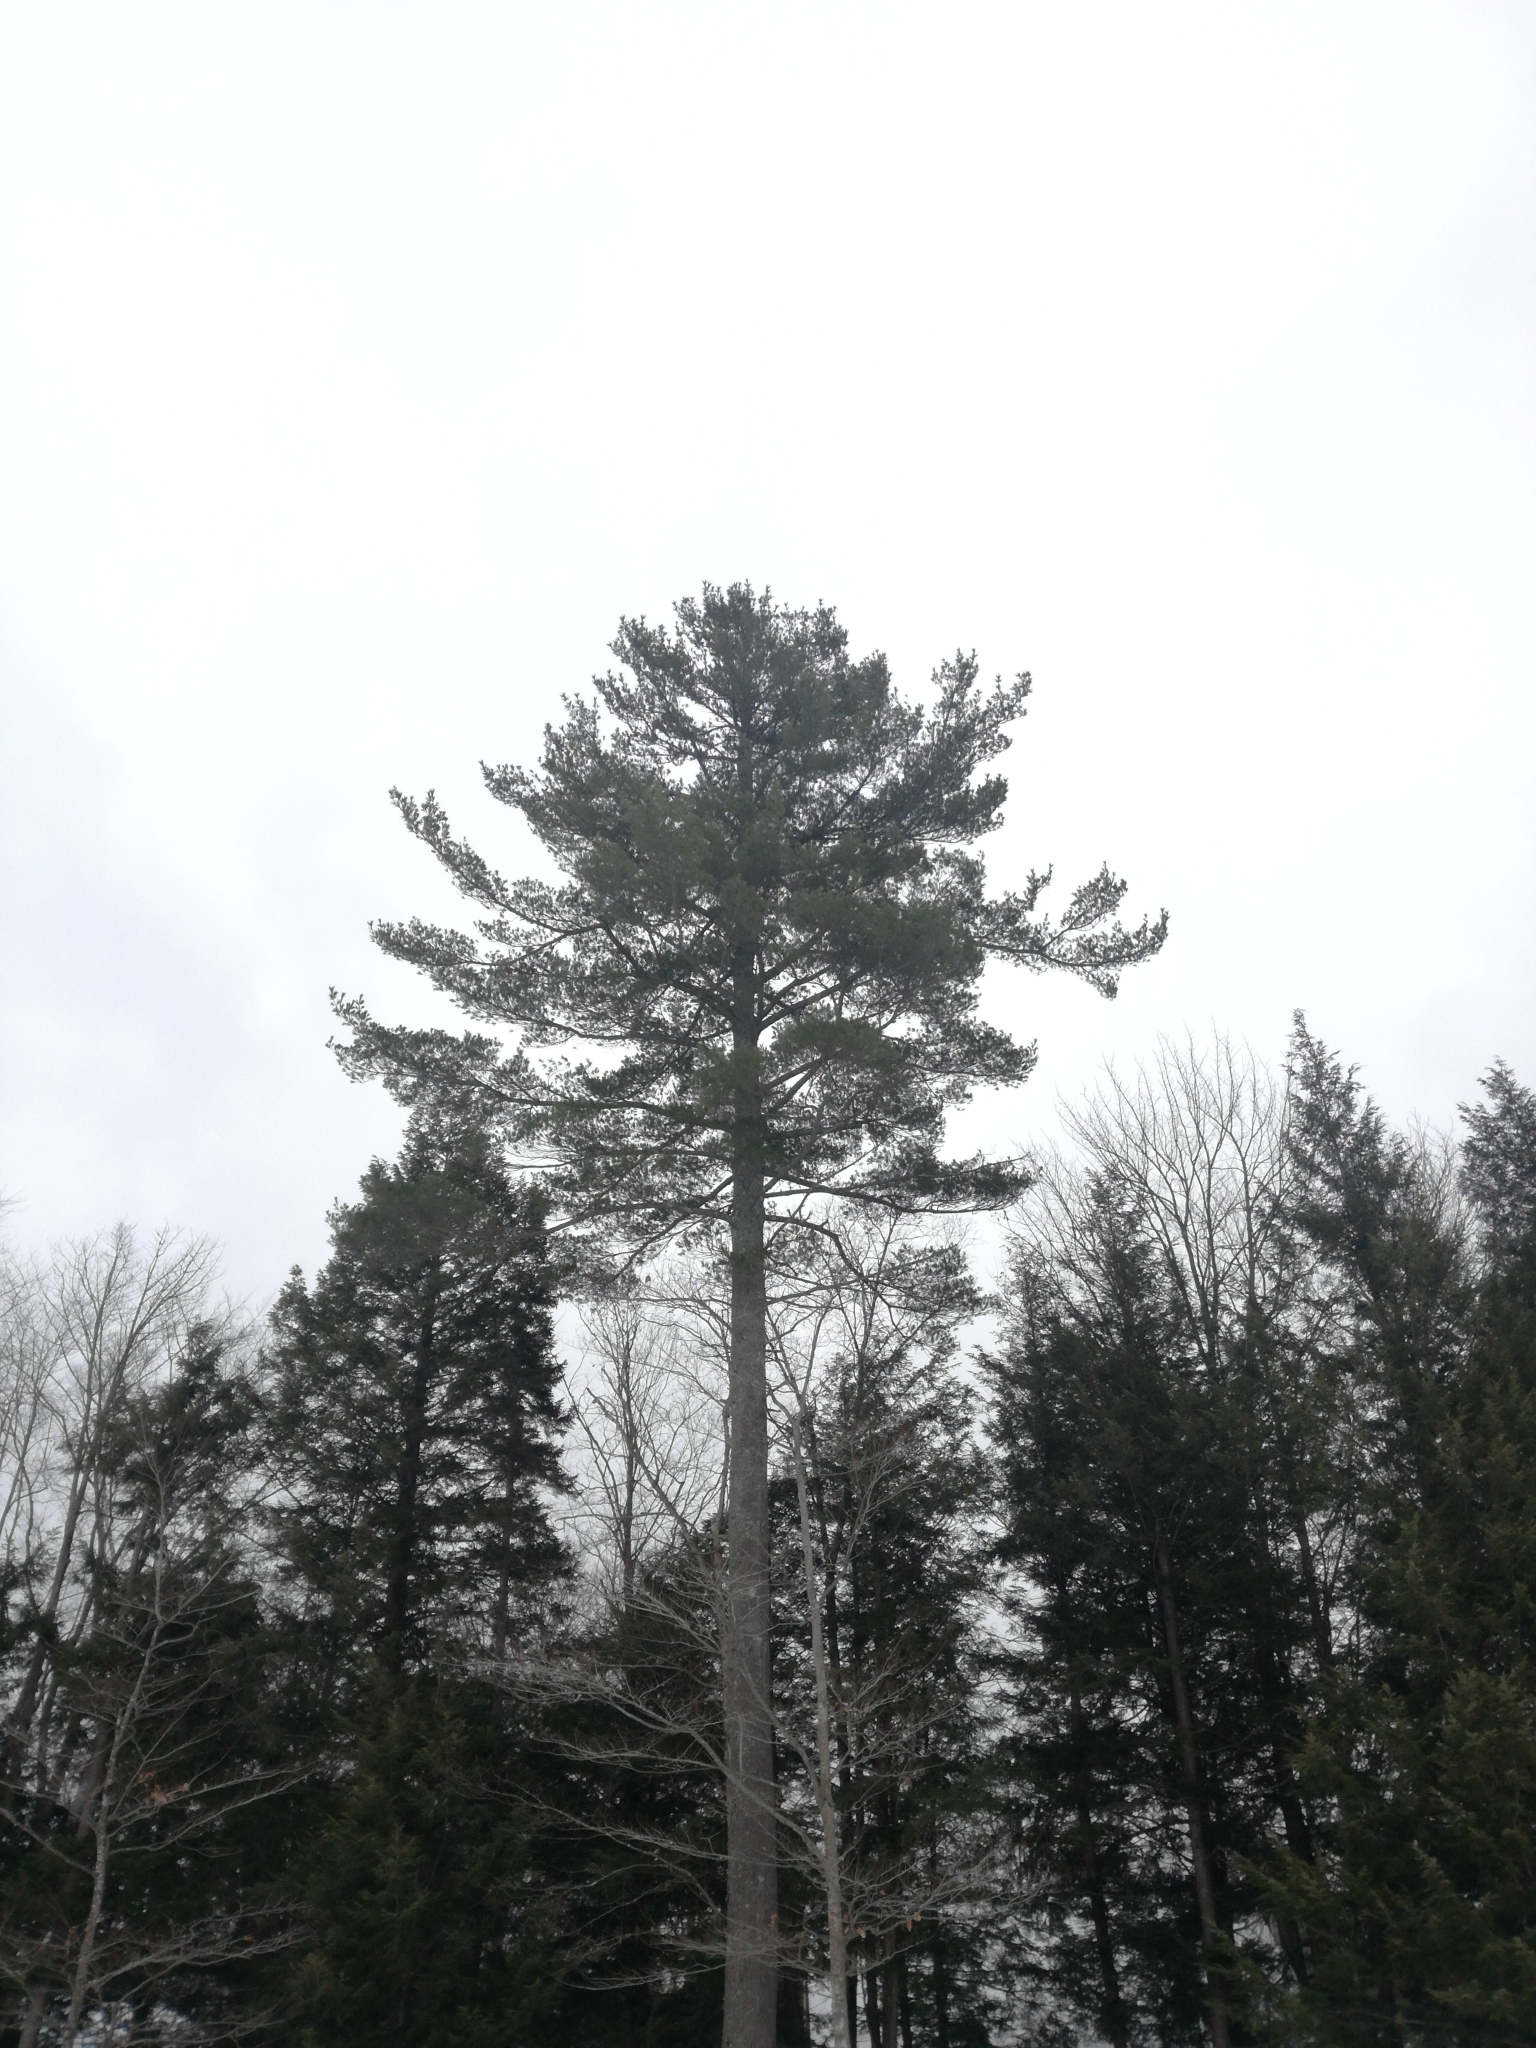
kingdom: Plantae
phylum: Tracheophyta
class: Pinopsida
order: Pinales
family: Pinaceae
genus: Pinus
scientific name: Pinus strobus
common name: Weymouth pine
